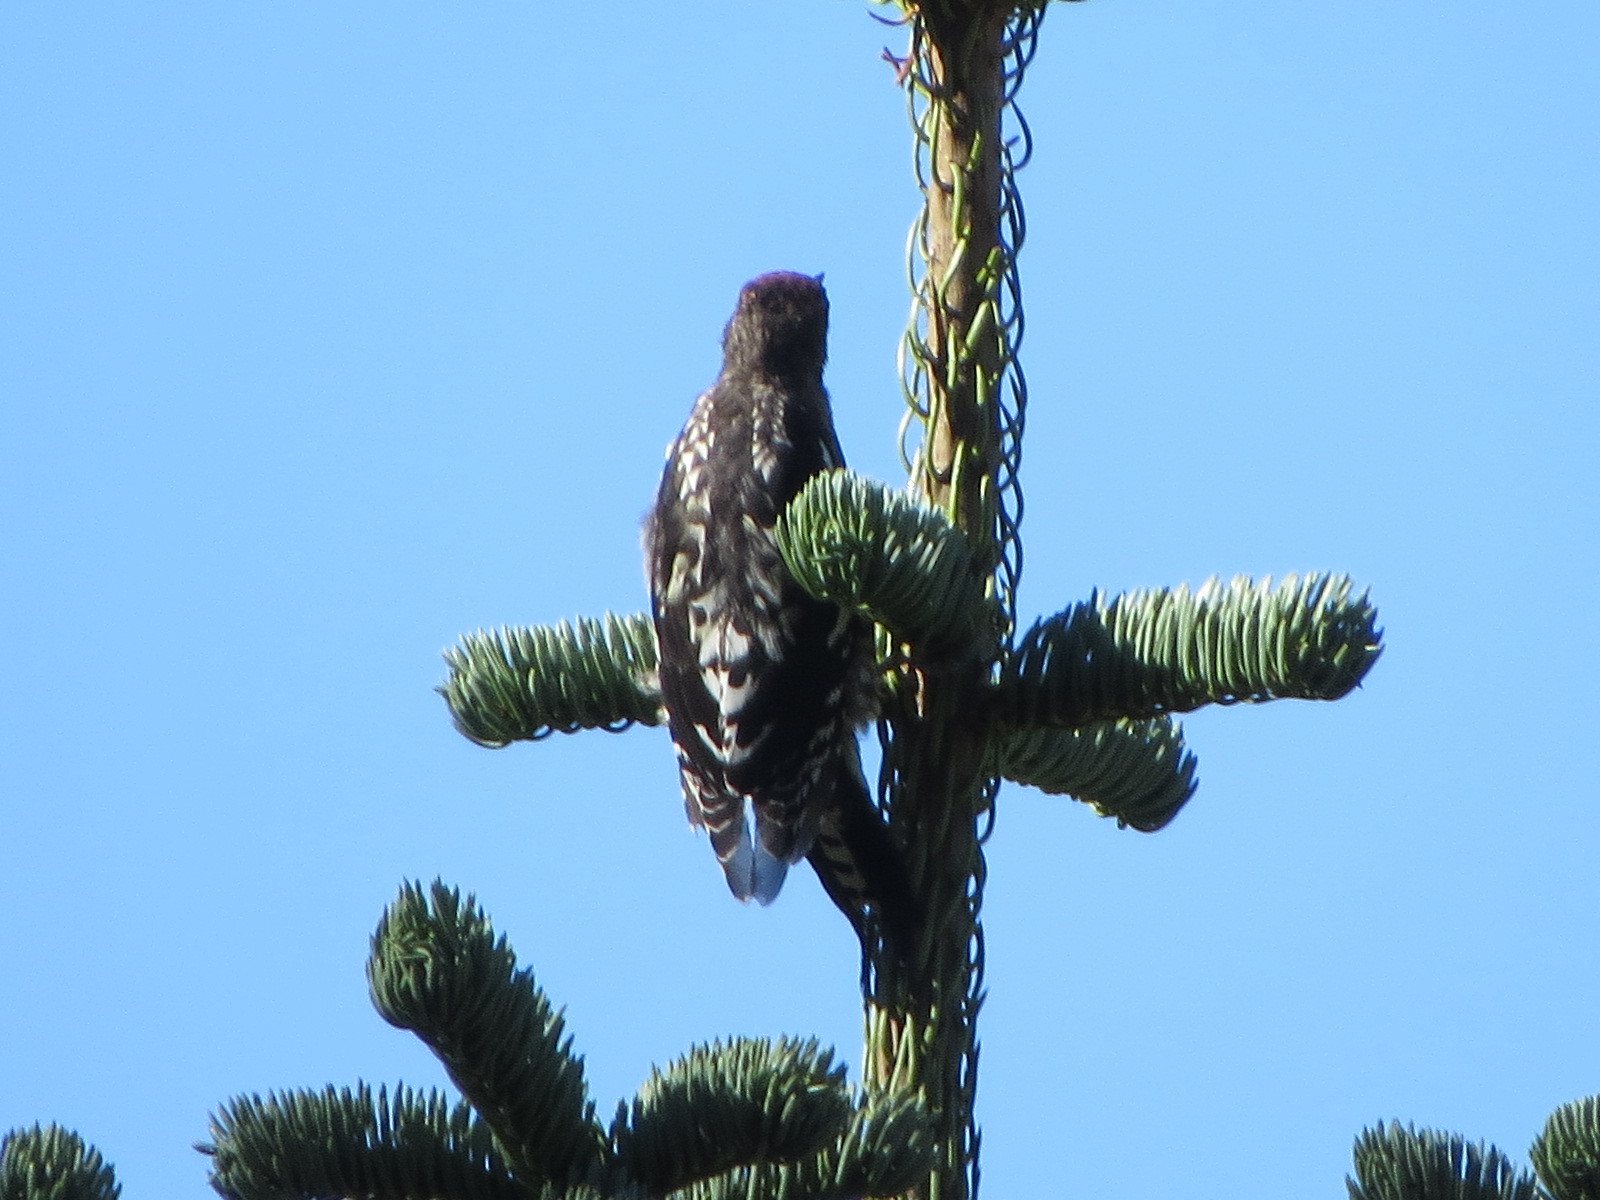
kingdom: Animalia
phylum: Chordata
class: Aves
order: Piciformes
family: Picidae
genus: Sphyrapicus
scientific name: Sphyrapicus ruber
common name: Red-breasted sapsucker
